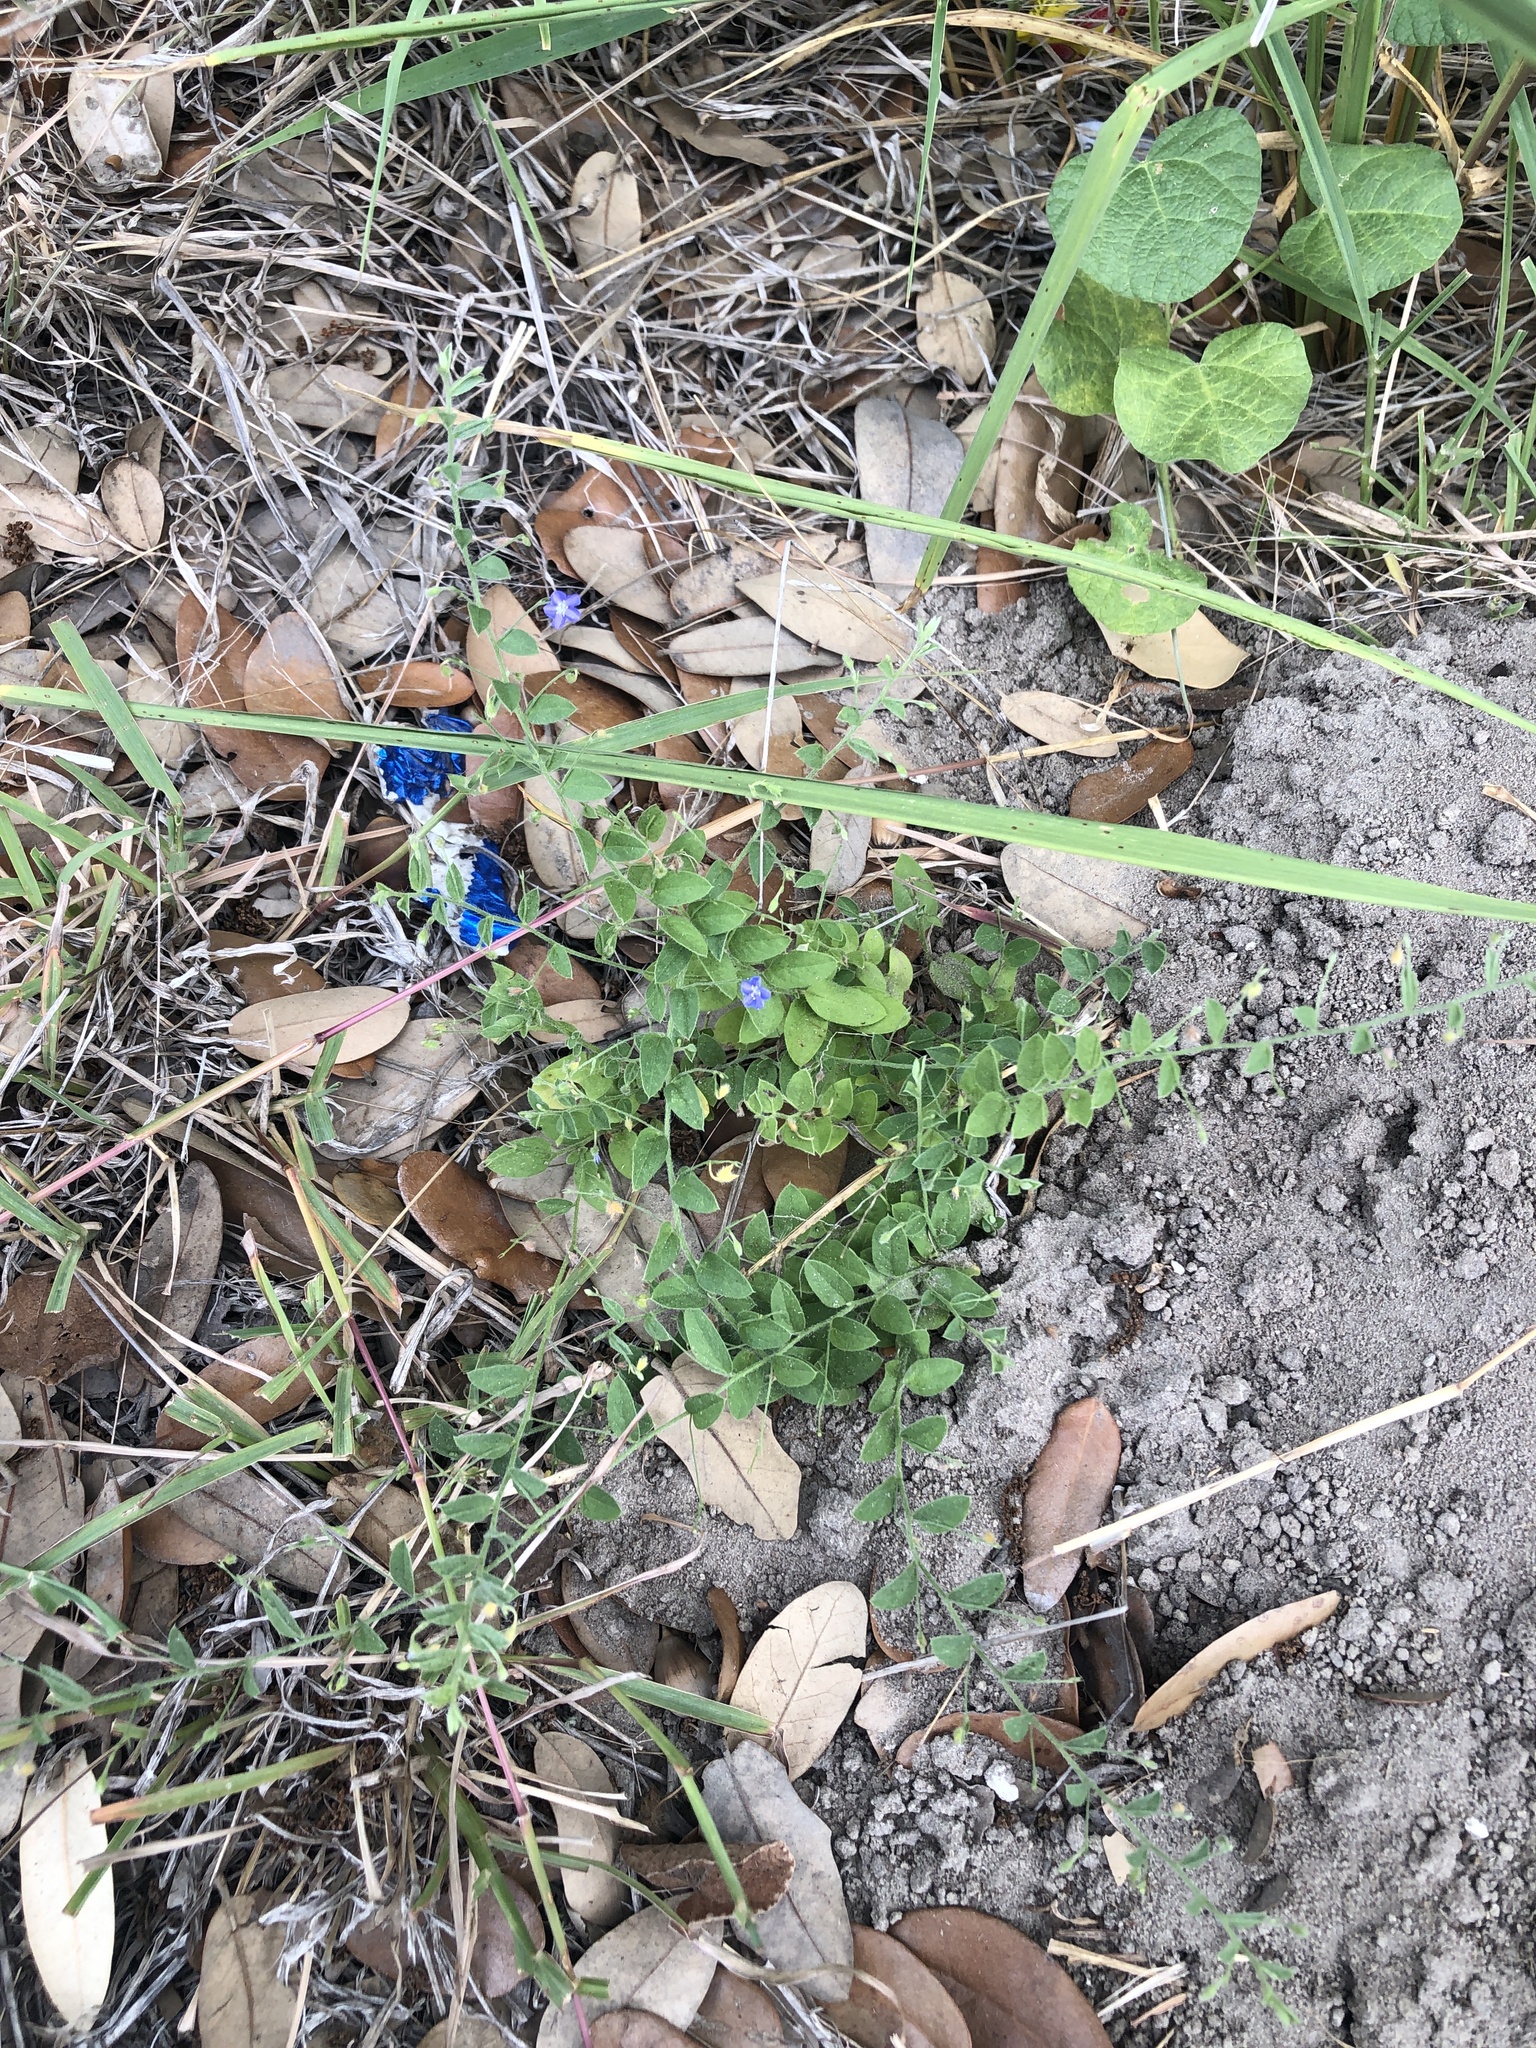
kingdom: Plantae
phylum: Tracheophyta
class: Magnoliopsida
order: Solanales
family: Convolvulaceae
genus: Evolvulus
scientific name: Evolvulus alsinoides
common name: Slender dwarf morning-glory
